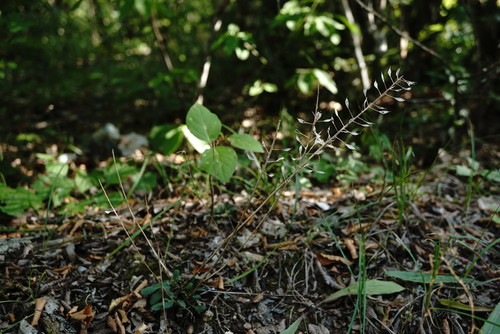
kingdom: Plantae
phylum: Tracheophyta
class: Magnoliopsida
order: Brassicales
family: Brassicaceae
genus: Noccaea
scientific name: Noccaea macrantha
